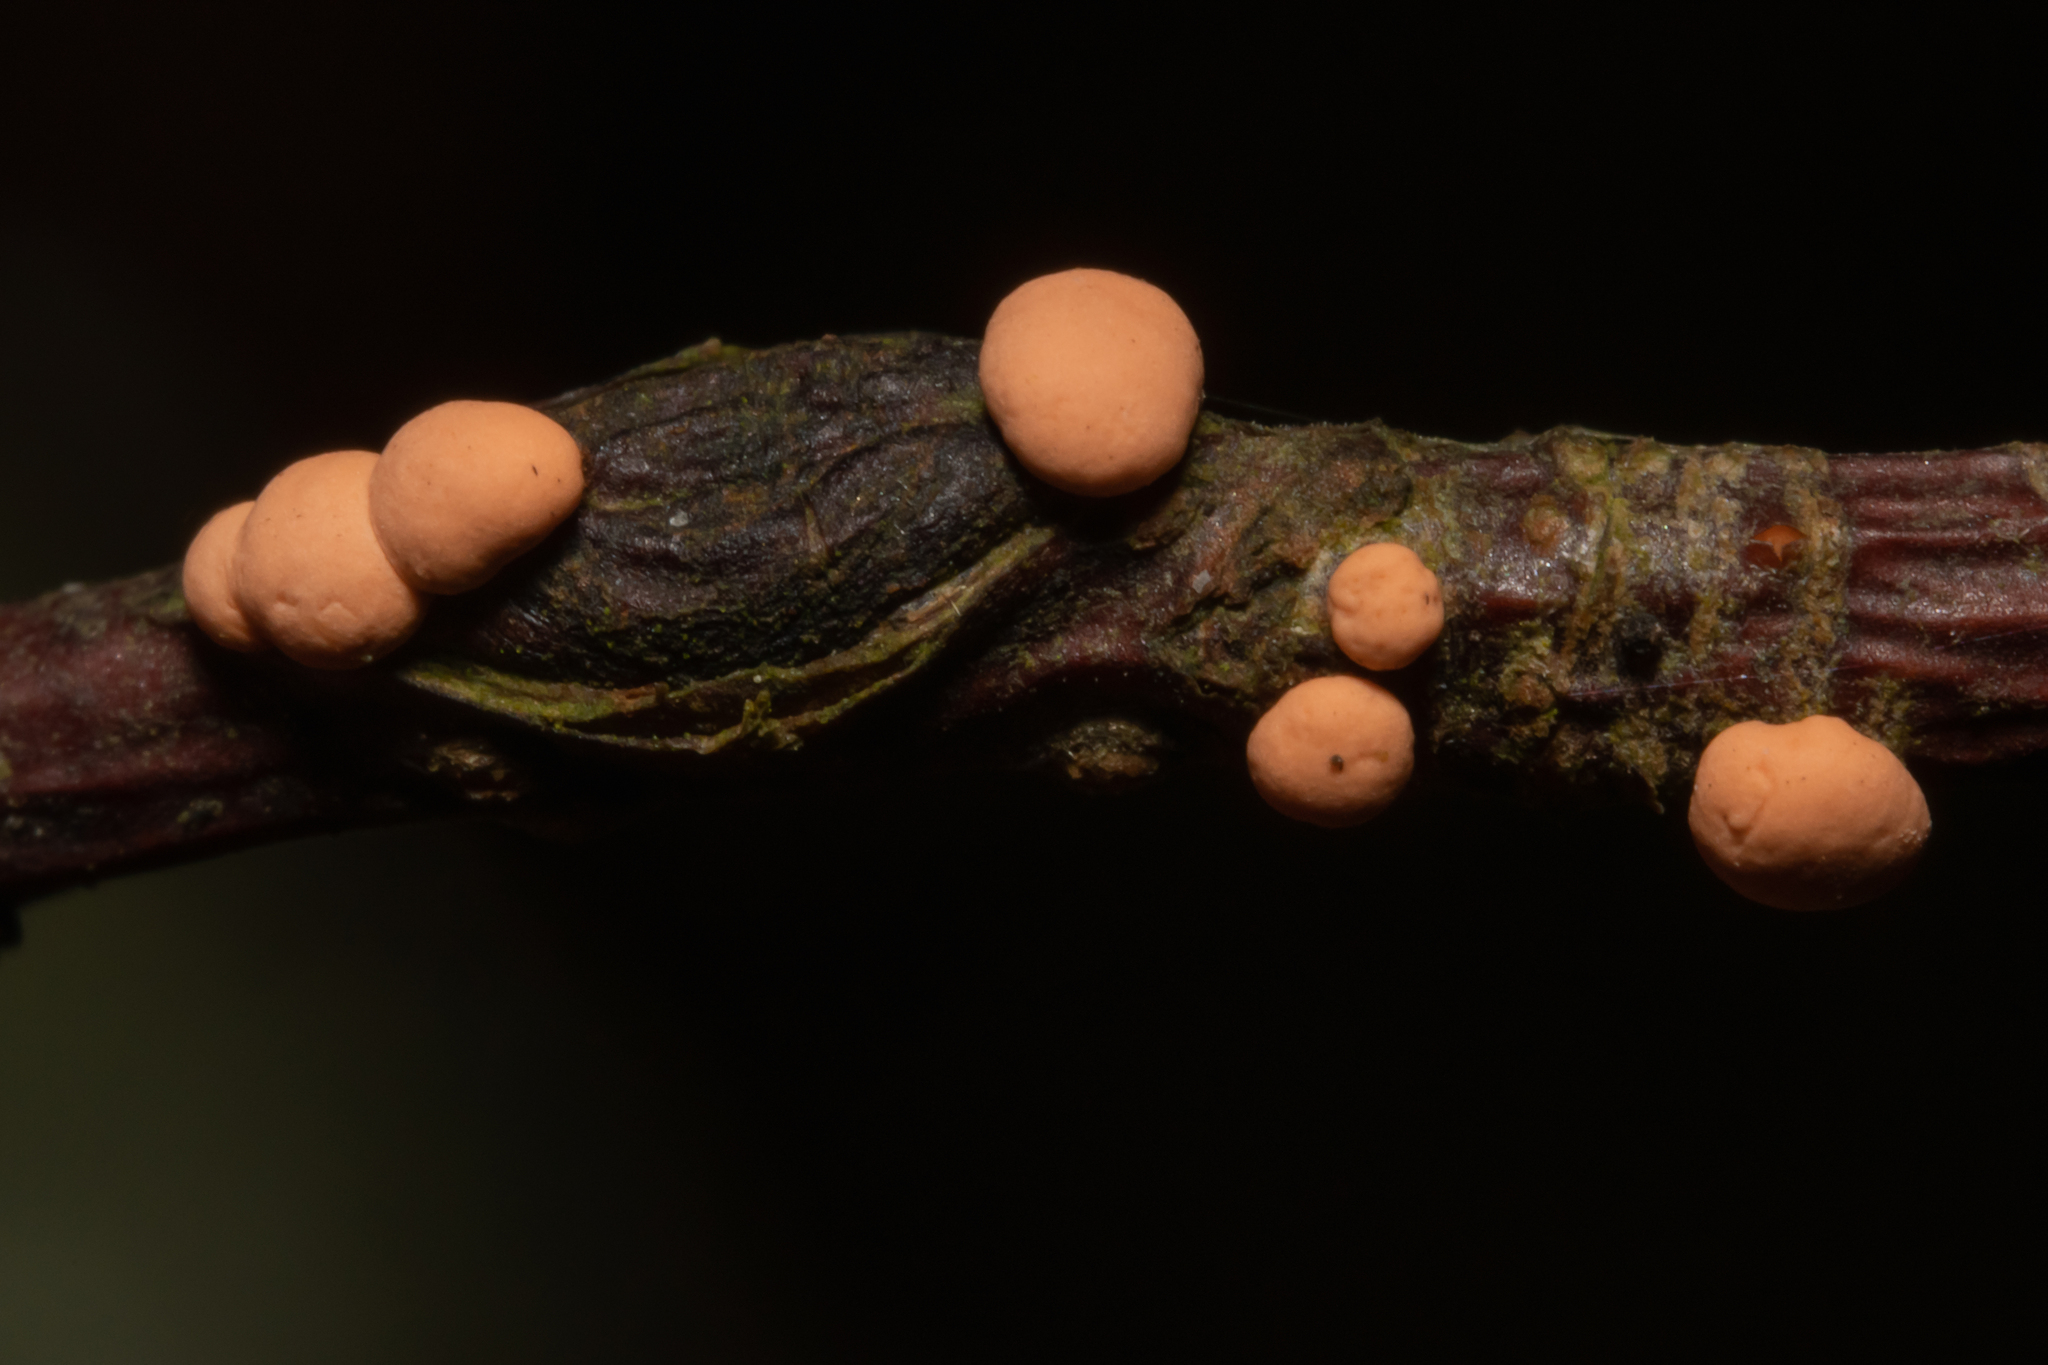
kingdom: Fungi
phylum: Ascomycota
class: Sordariomycetes
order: Hypocreales
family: Nectriaceae
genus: Nectria
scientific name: Nectria cinnabarina
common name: Coral spot
